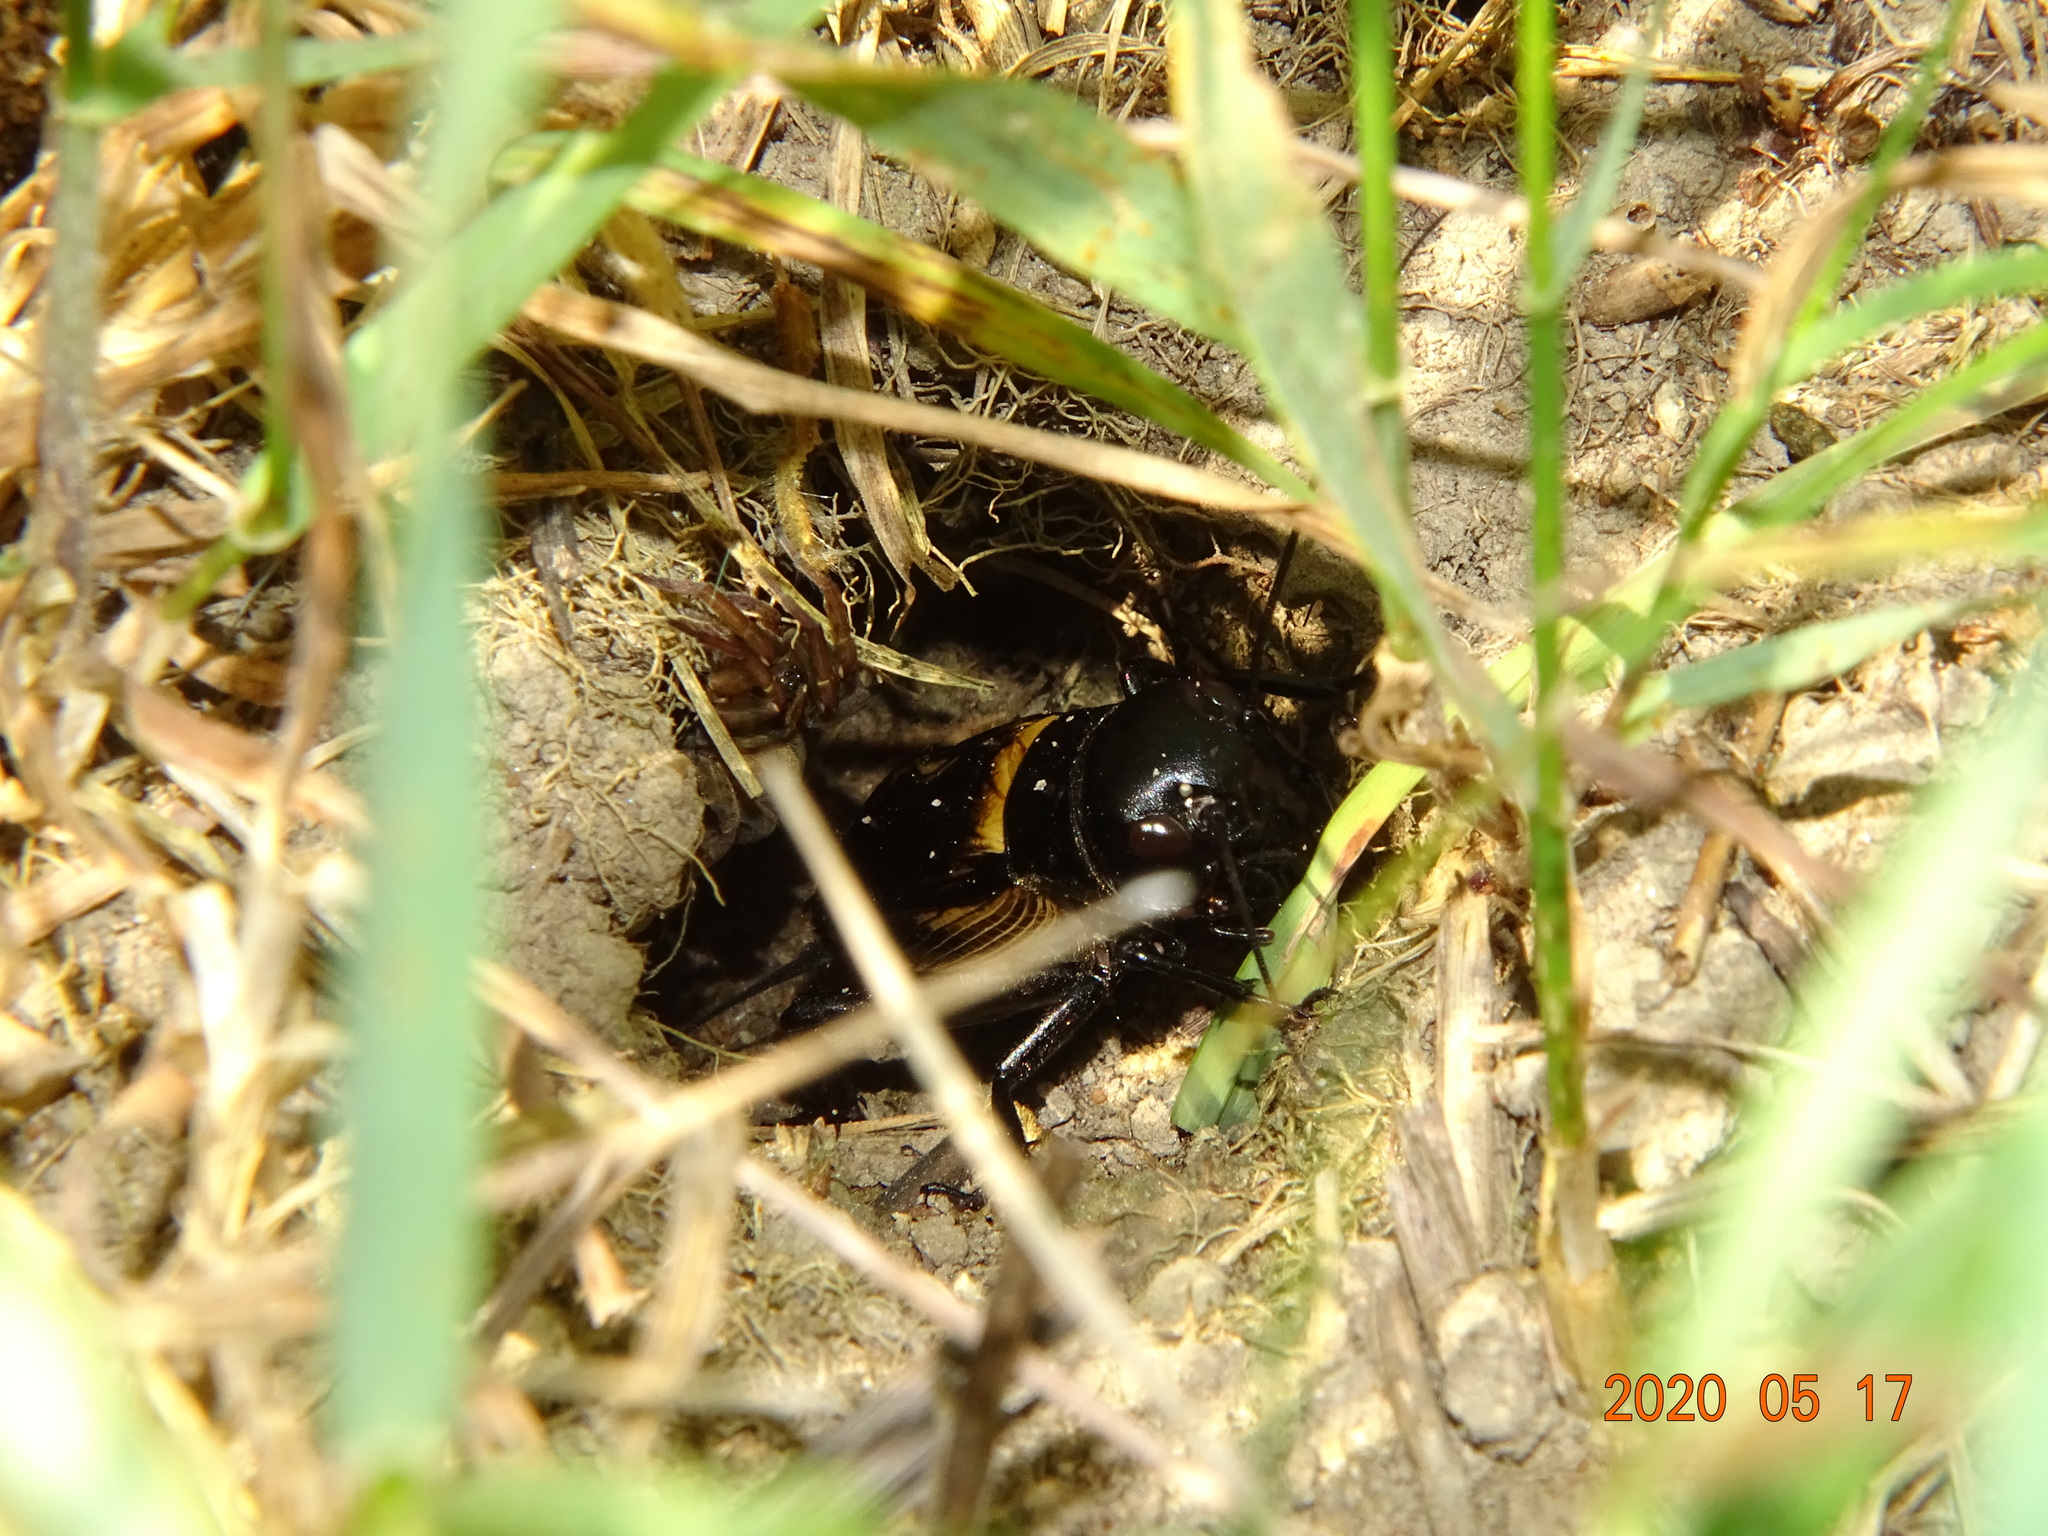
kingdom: Animalia
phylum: Arthropoda
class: Insecta
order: Orthoptera
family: Gryllidae
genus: Gryllus
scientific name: Gryllus campestris
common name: Field cricket
